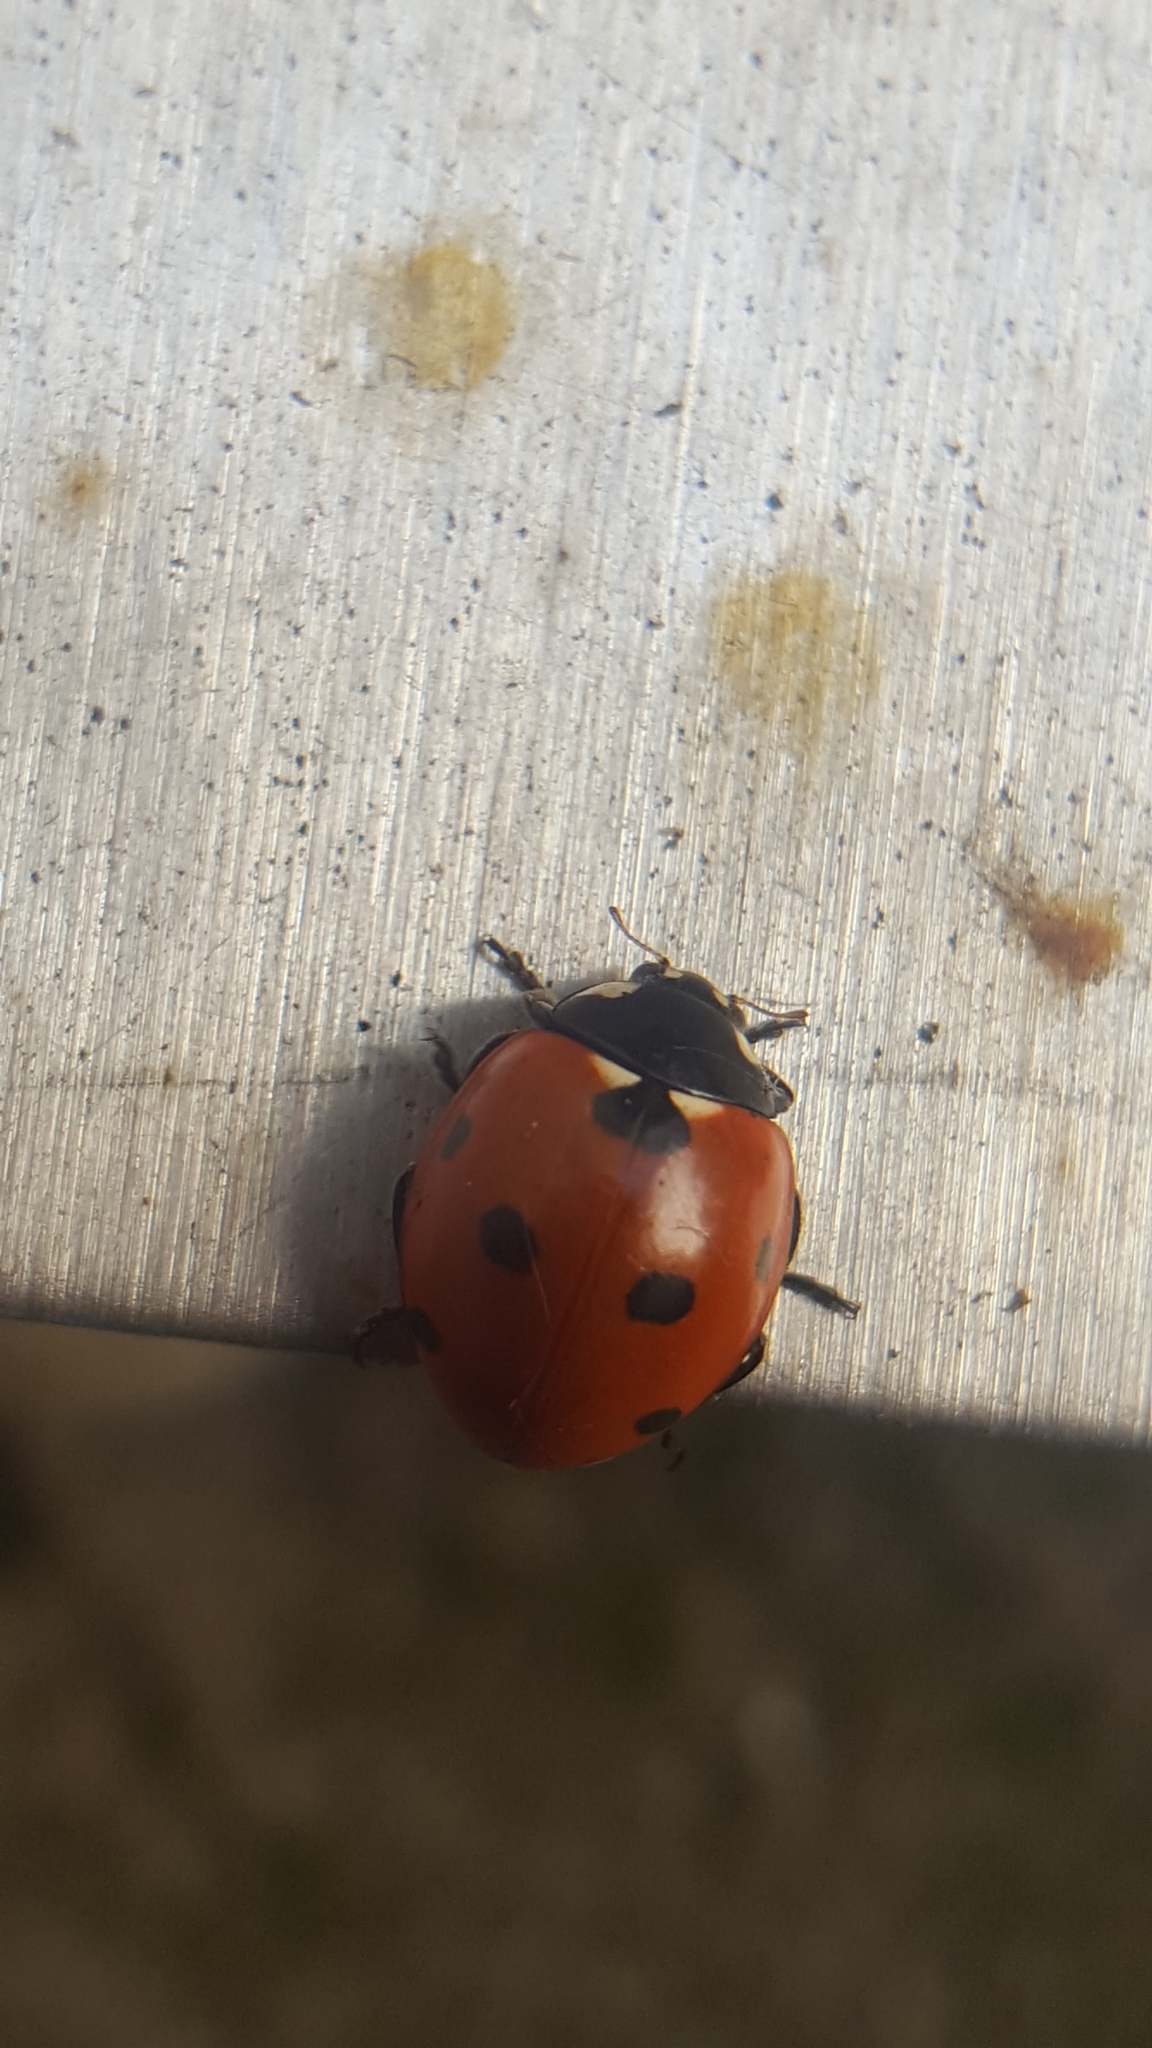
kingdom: Animalia
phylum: Arthropoda
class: Insecta
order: Coleoptera
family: Coccinellidae
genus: Coccinella
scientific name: Coccinella septempunctata
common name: Sevenspotted lady beetle
